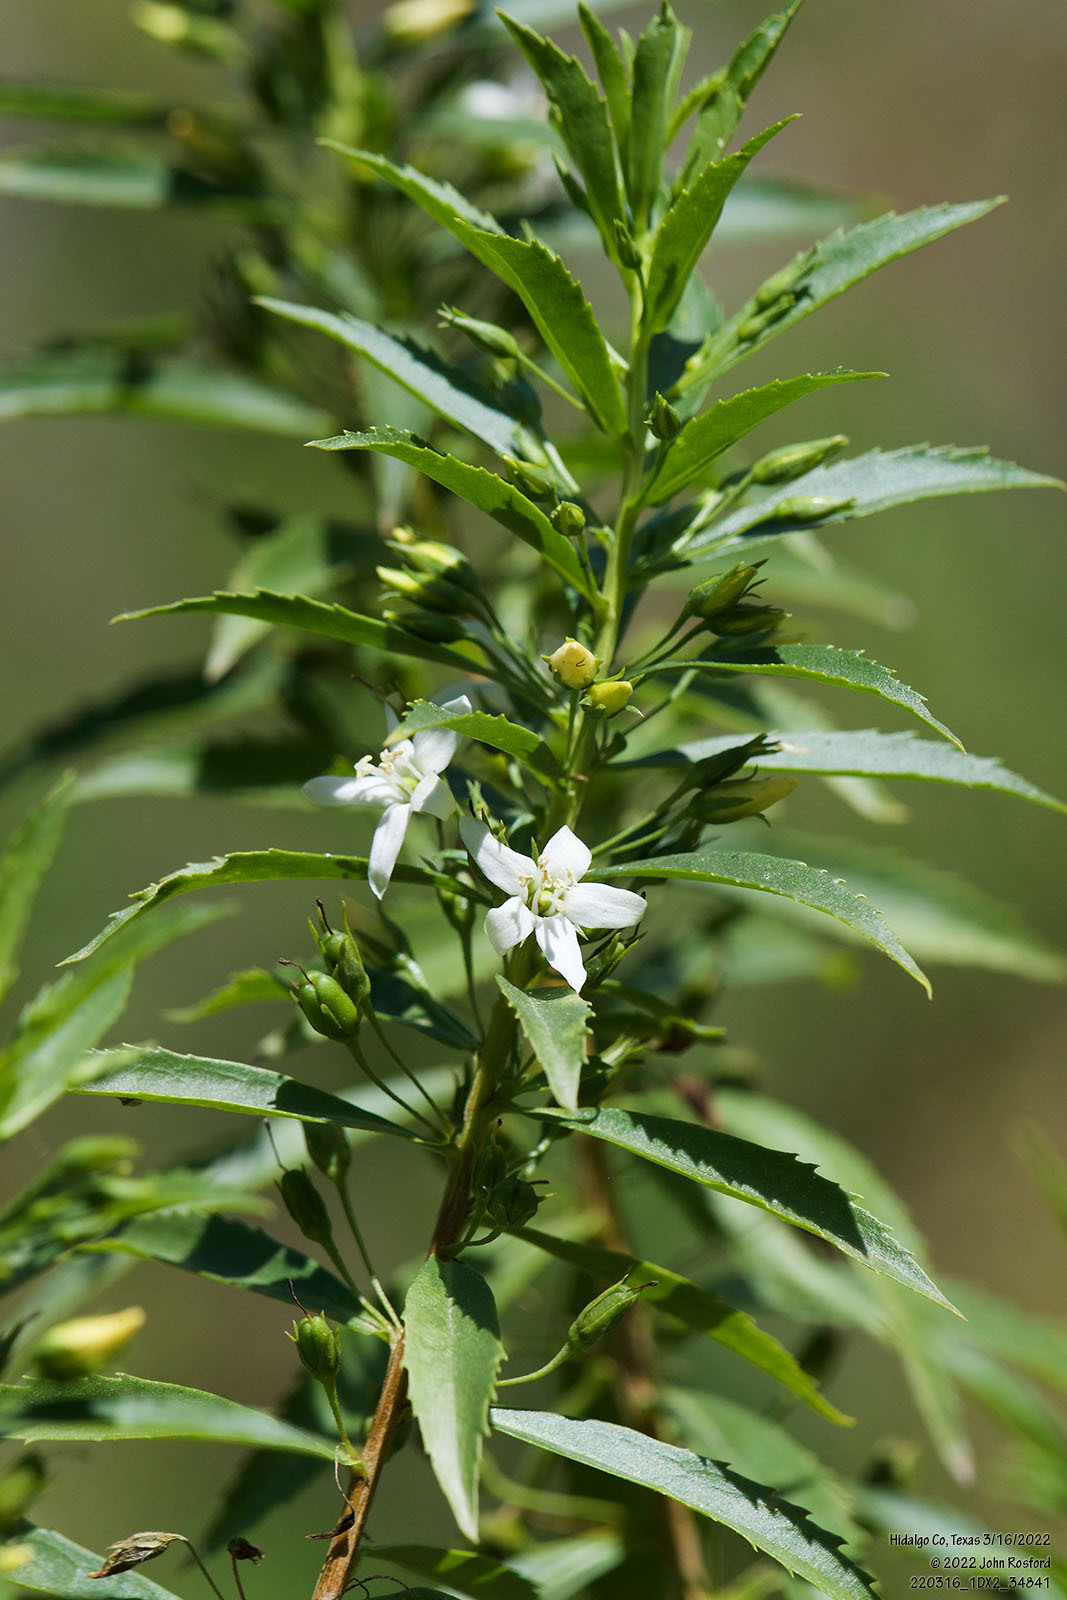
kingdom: Plantae
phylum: Tracheophyta
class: Magnoliopsida
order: Lamiales
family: Scrophulariaceae
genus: Capraria
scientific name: Capraria mexicana
